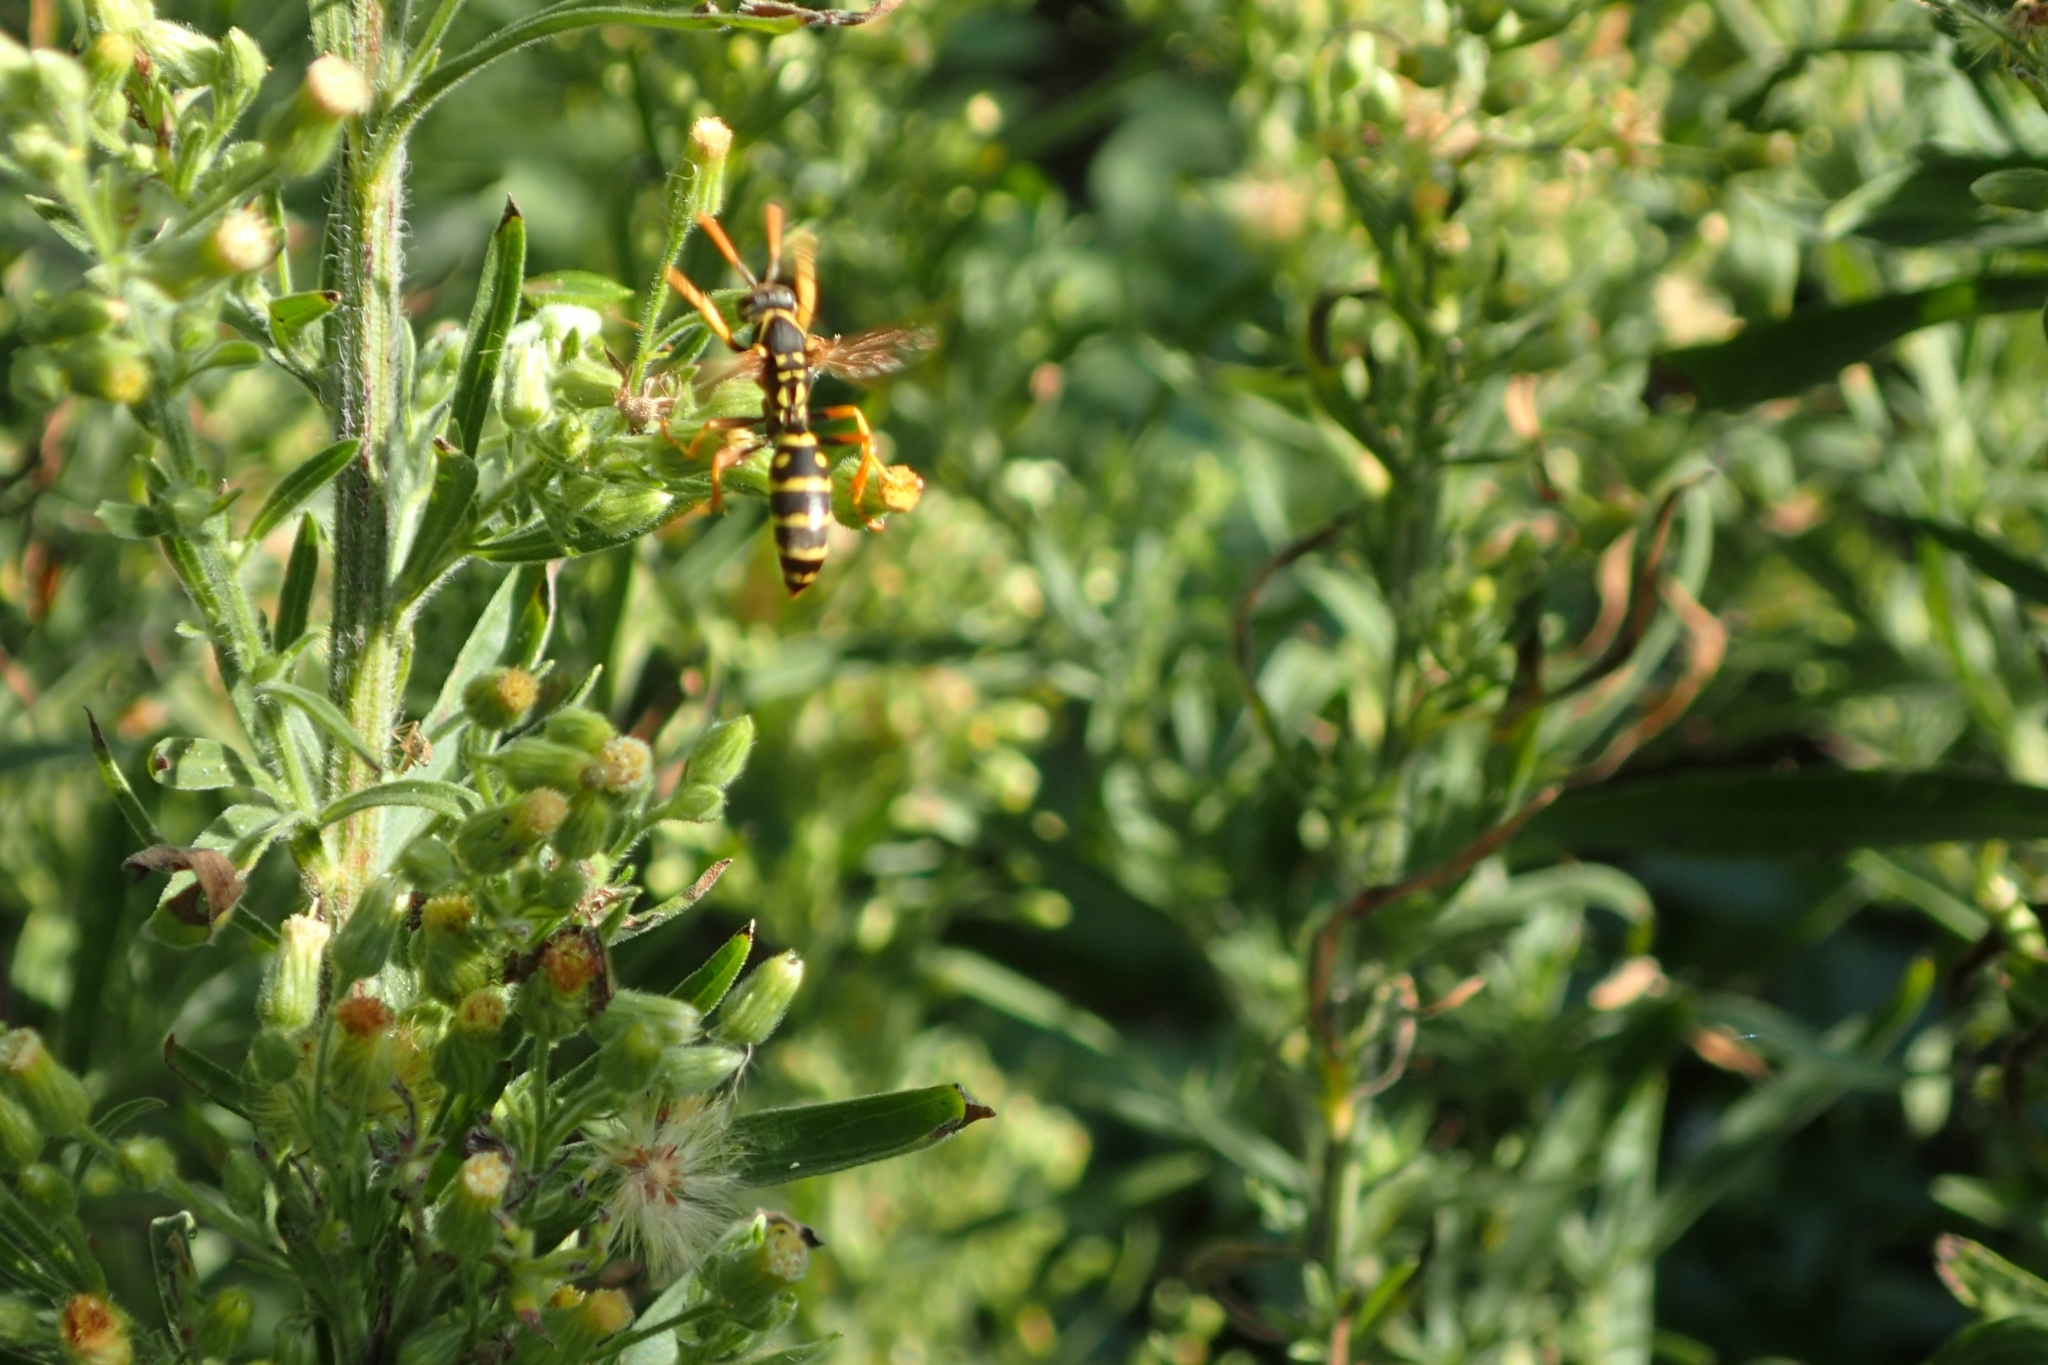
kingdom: Animalia
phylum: Arthropoda
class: Insecta
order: Hymenoptera
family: Eumenidae
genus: Polistes
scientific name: Polistes chinensis
